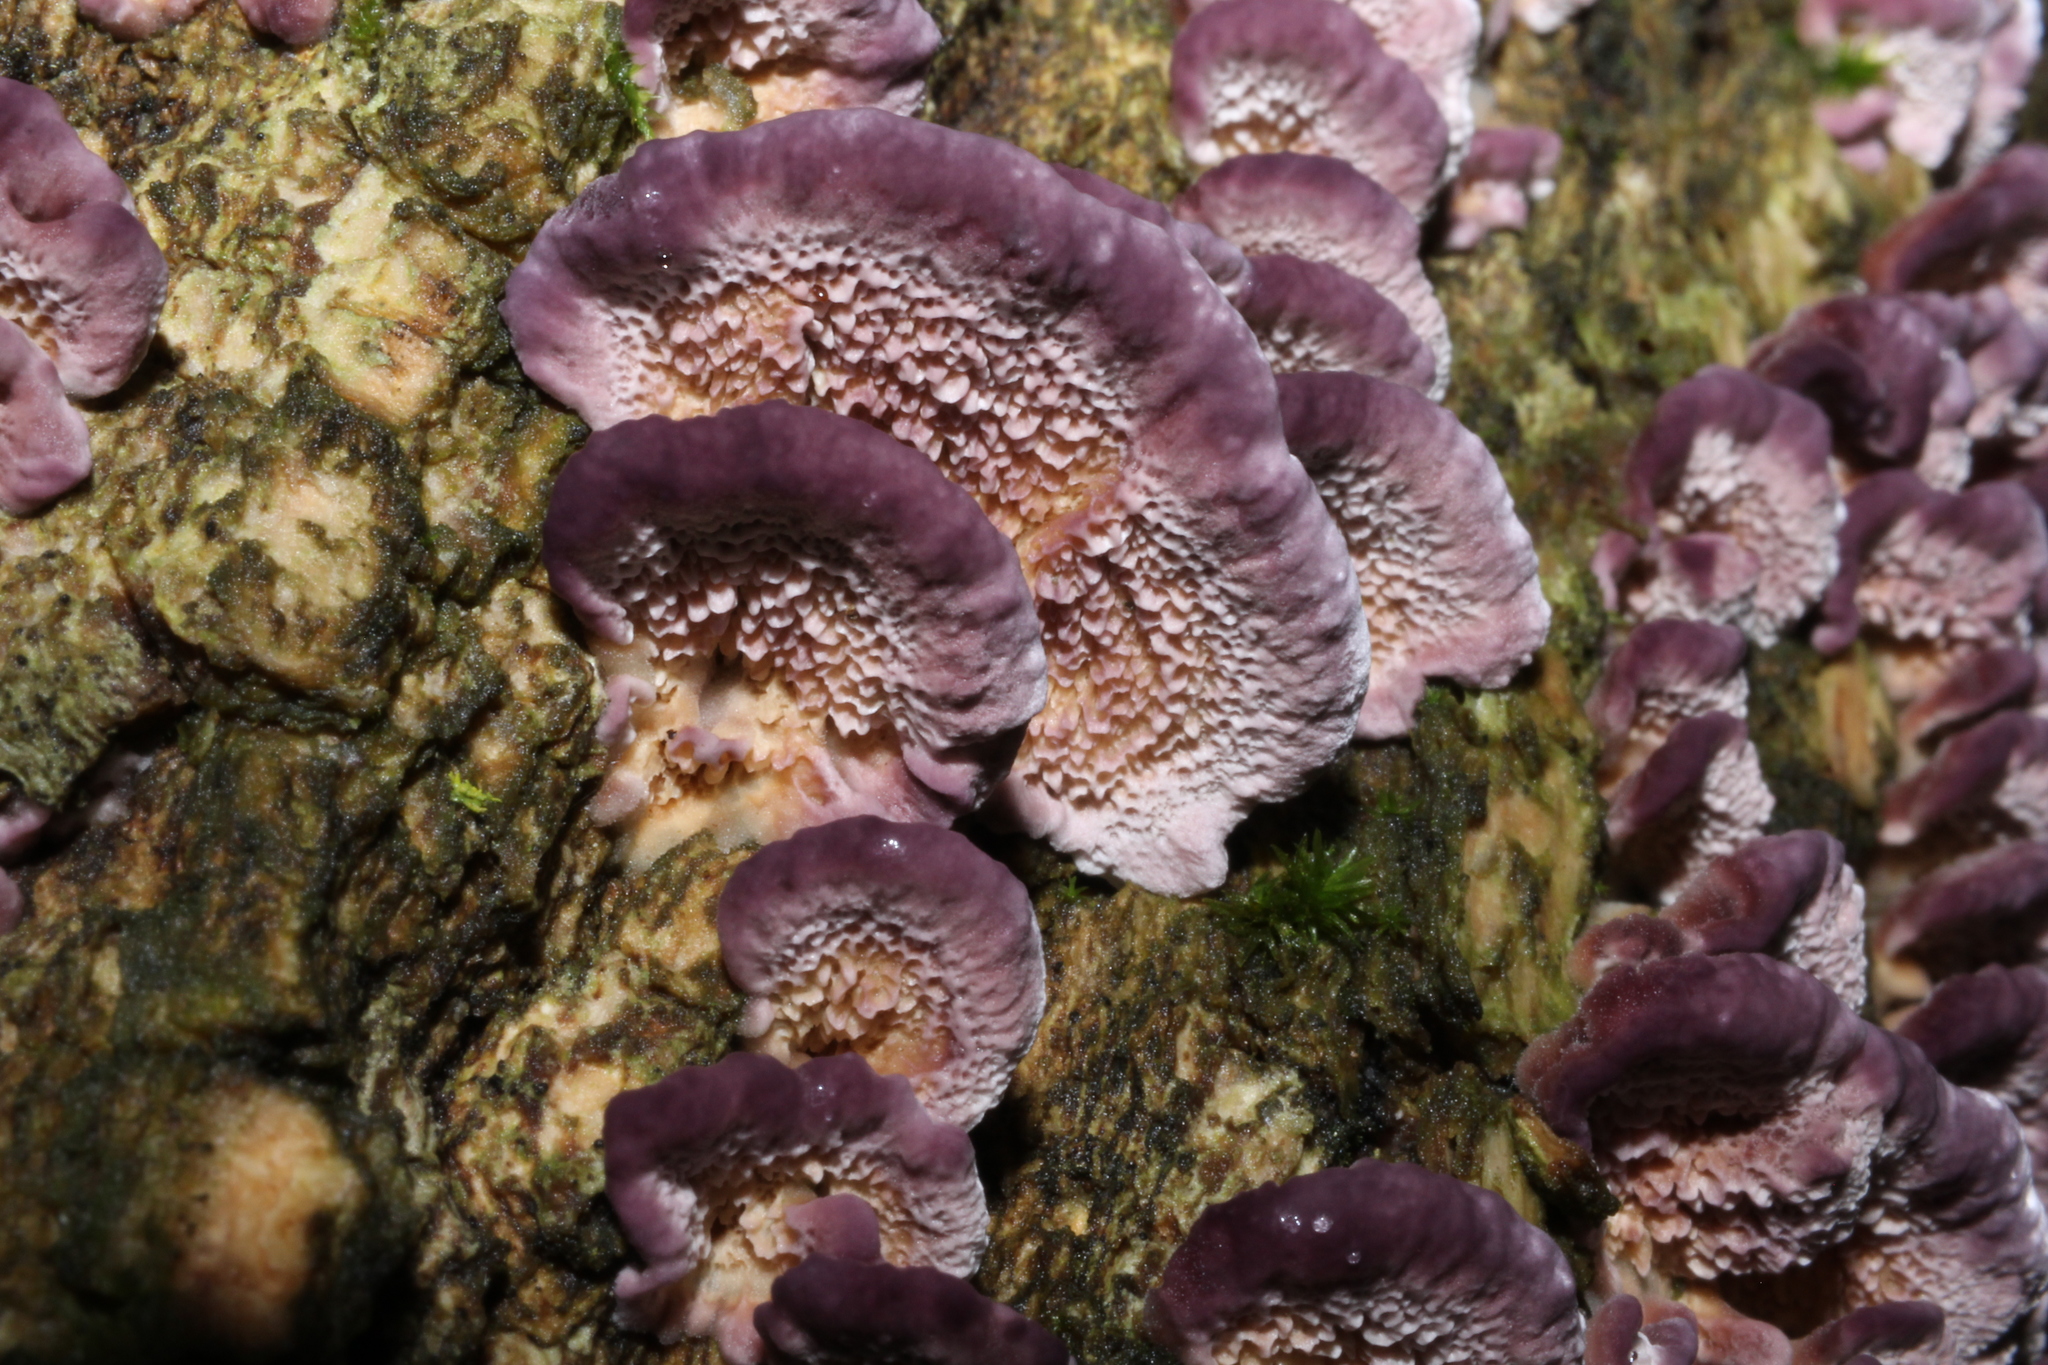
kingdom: Fungi
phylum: Basidiomycota
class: Agaricomycetes
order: Hymenochaetales
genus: Trichaptum
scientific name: Trichaptum biforme
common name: Violet-toothed polypore
